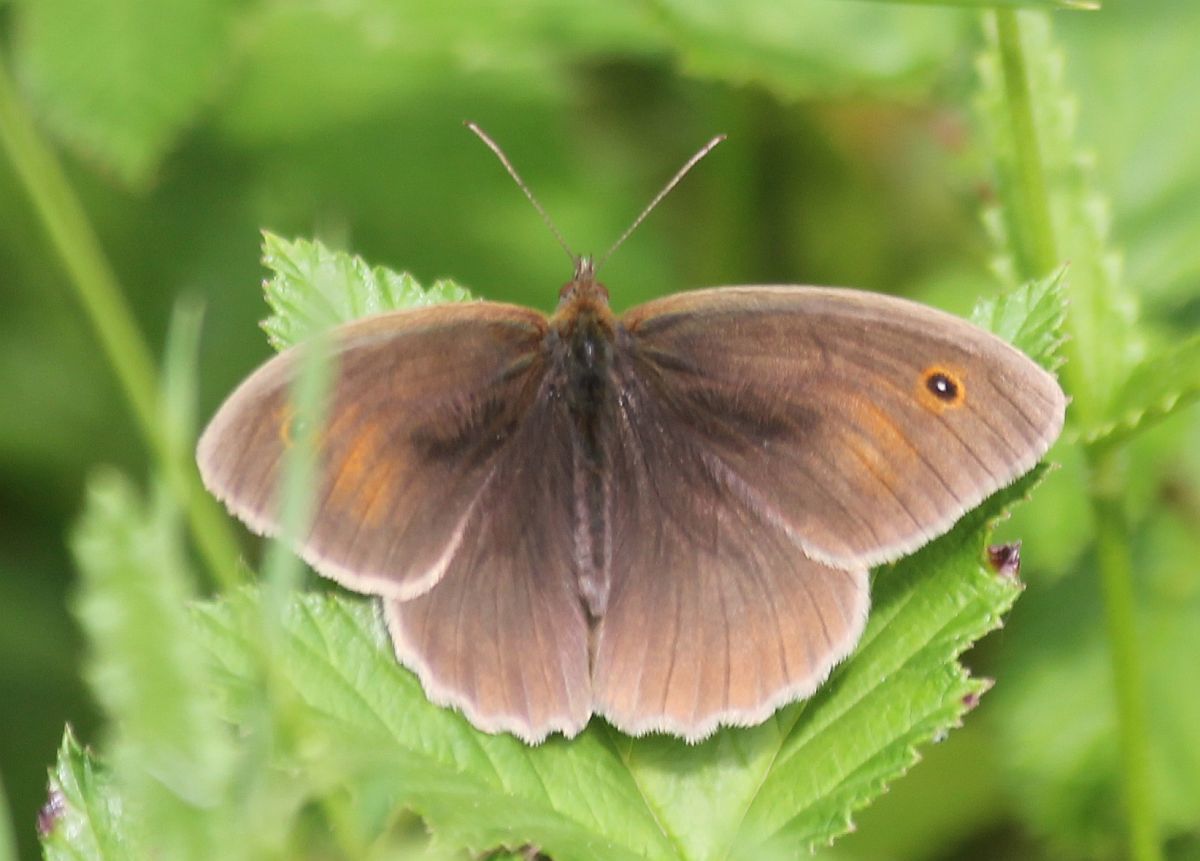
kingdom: Animalia
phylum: Arthropoda
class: Insecta
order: Lepidoptera
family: Nymphalidae
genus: Maniola
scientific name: Maniola jurtina
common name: Meadow brown
